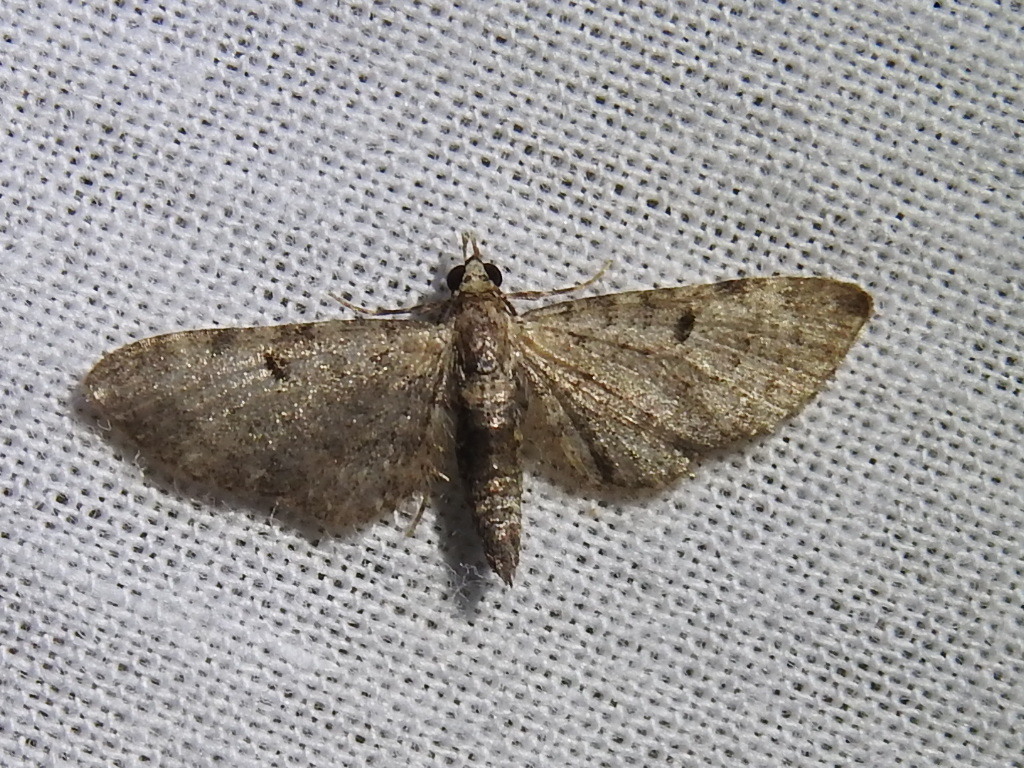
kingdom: Animalia
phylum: Arthropoda
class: Insecta
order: Lepidoptera
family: Geometridae
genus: Eupithecia
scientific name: Eupithecia miserulata
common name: Common eupithecia
